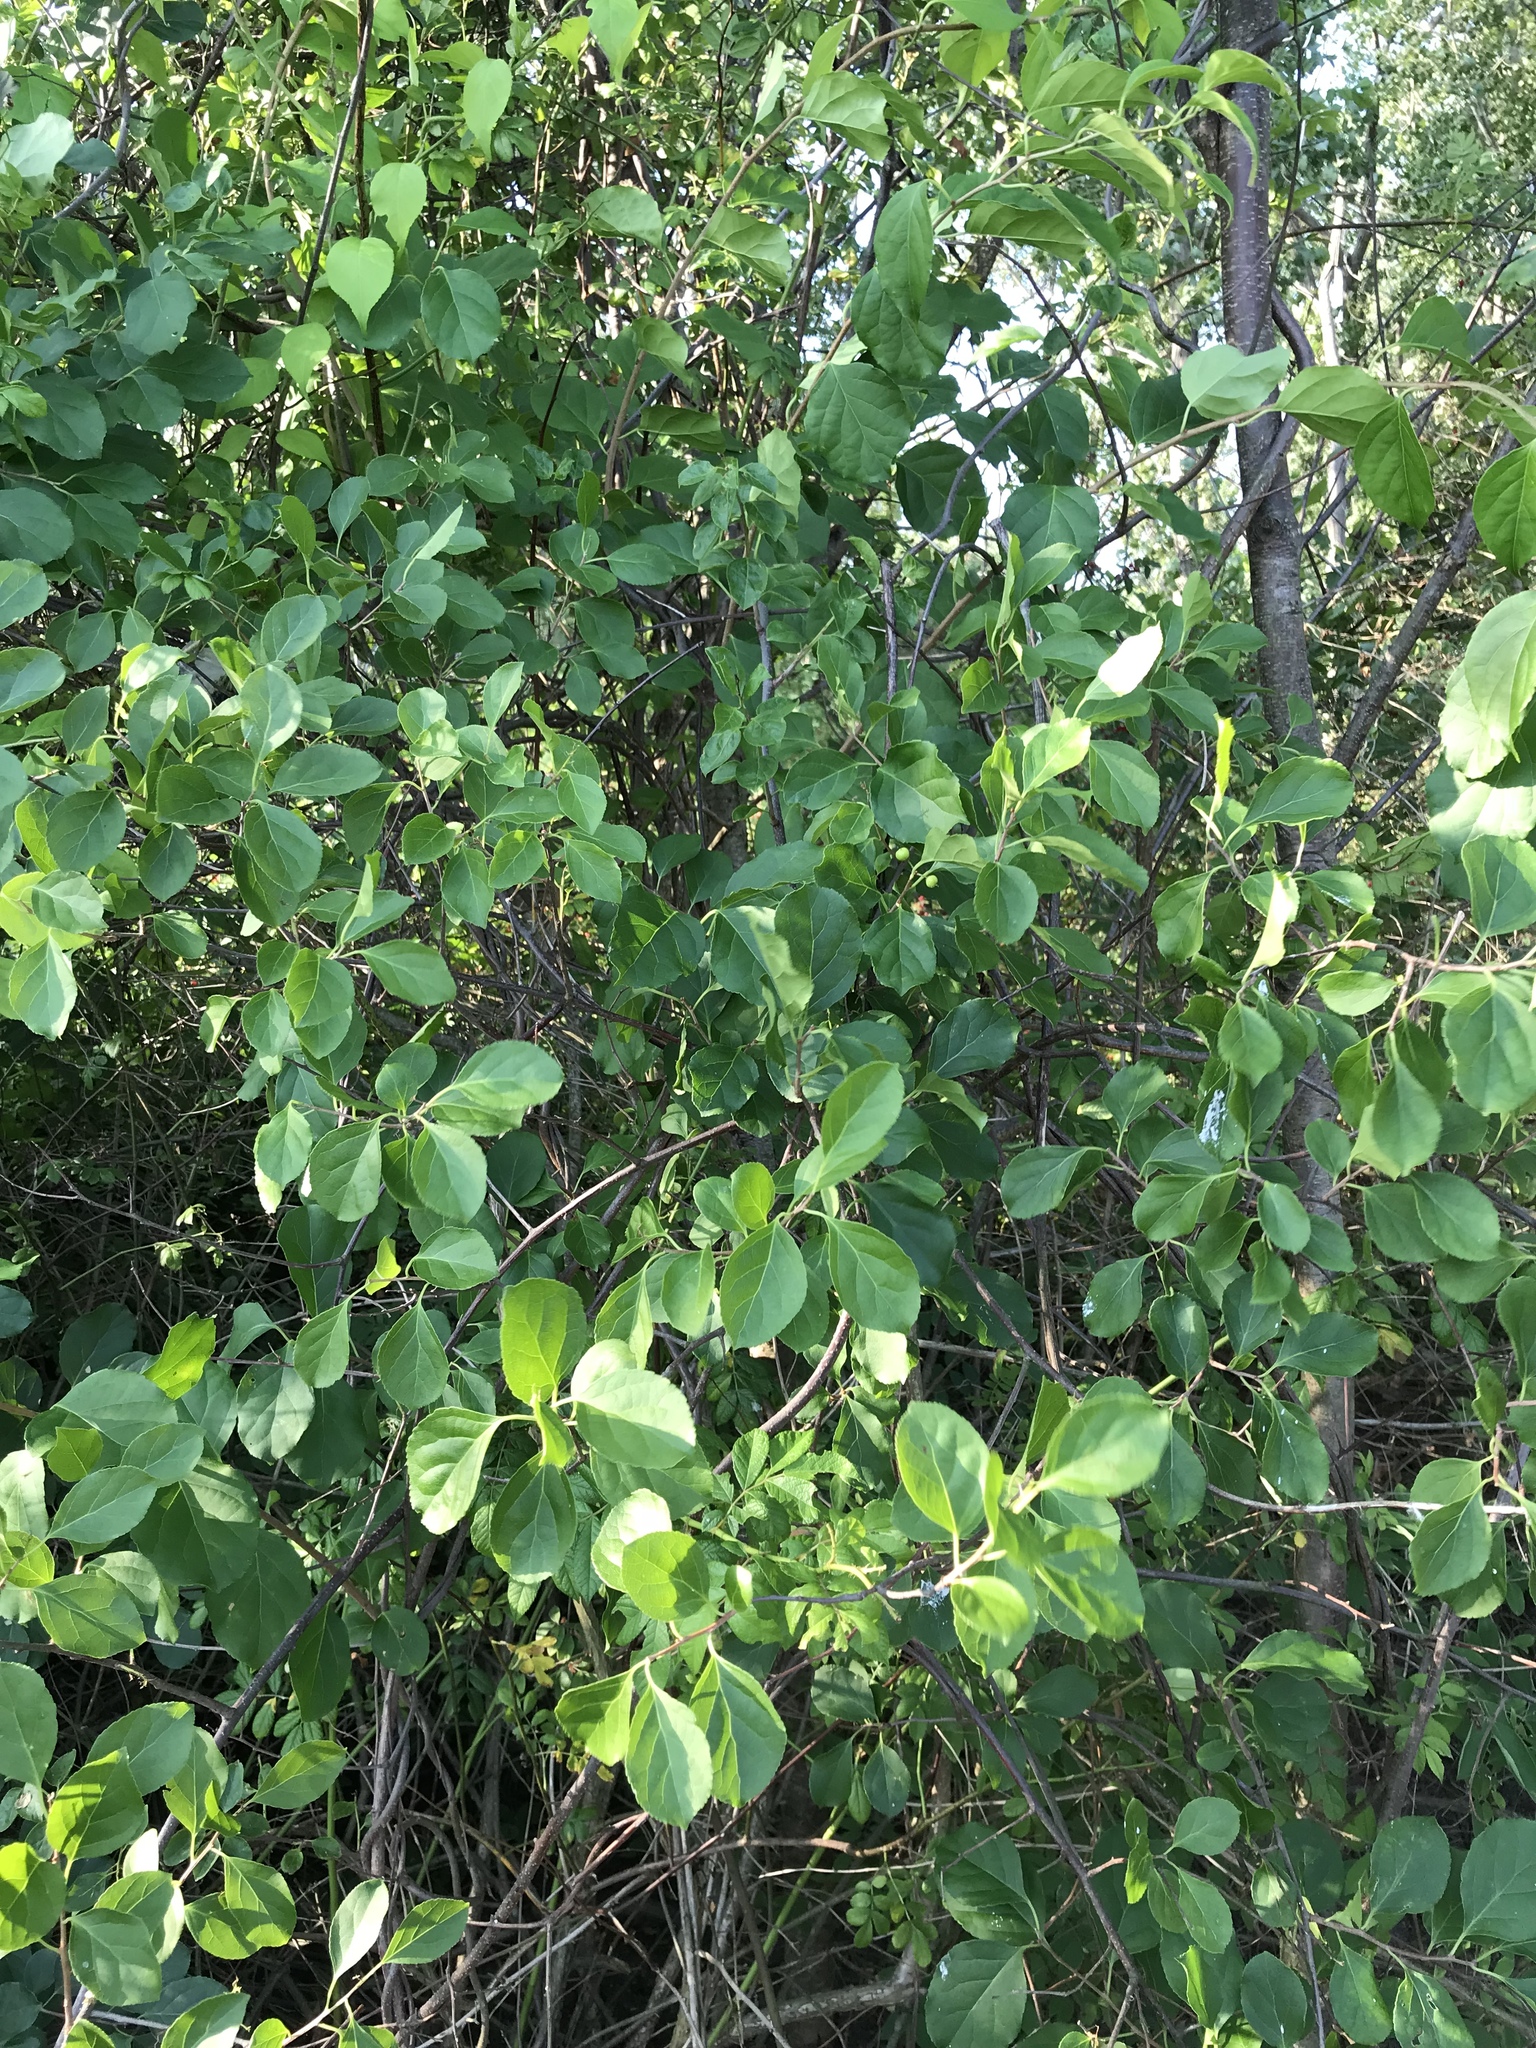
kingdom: Plantae
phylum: Tracheophyta
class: Magnoliopsida
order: Celastrales
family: Celastraceae
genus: Celastrus
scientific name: Celastrus orbiculatus
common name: Oriental bittersweet
